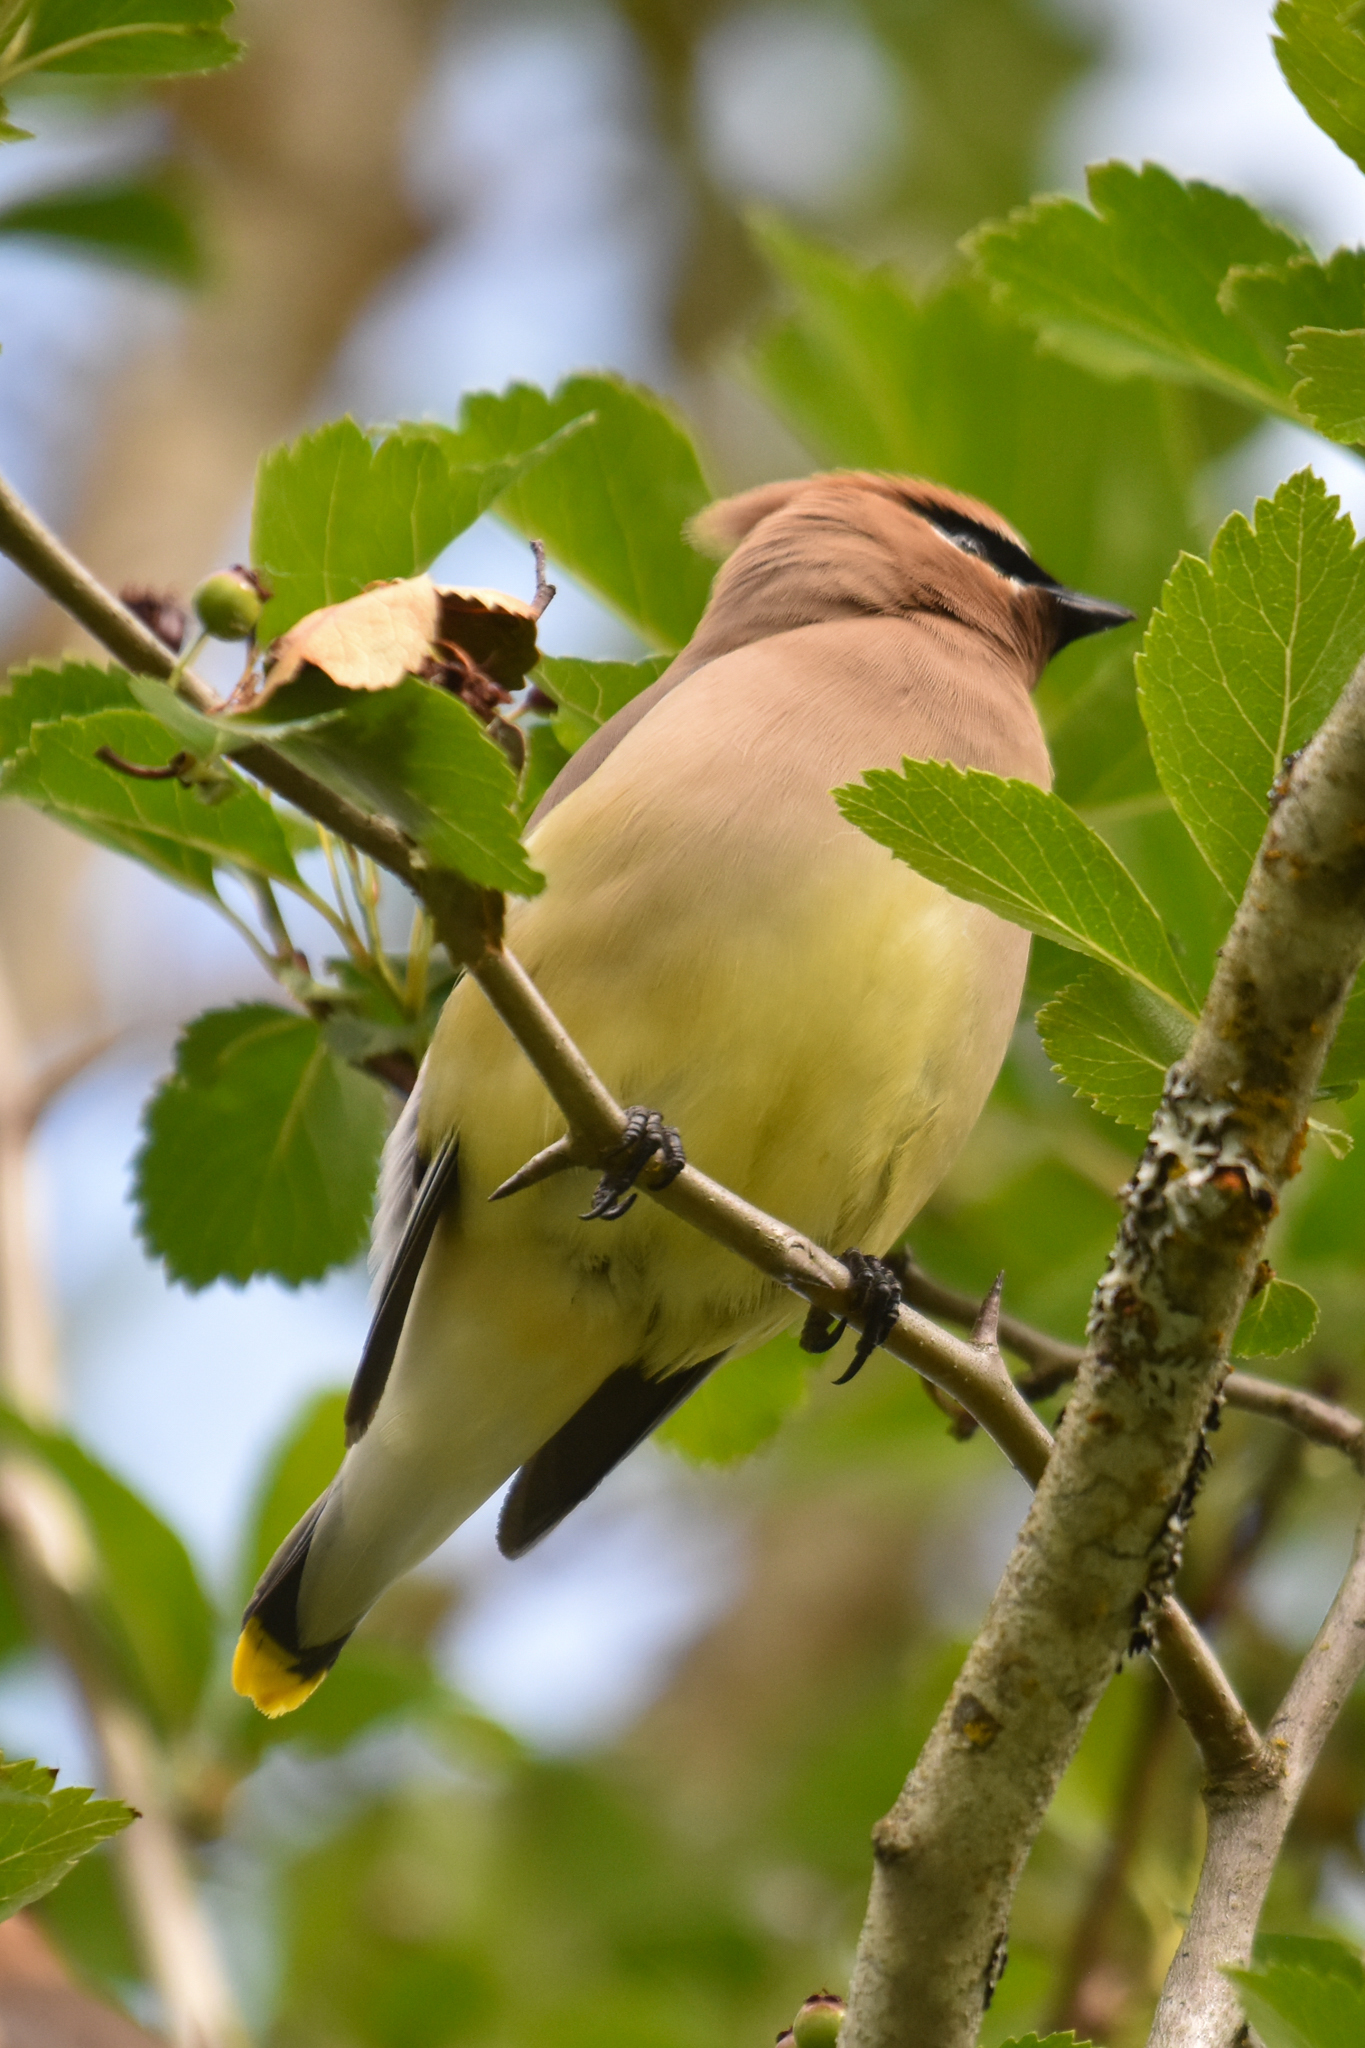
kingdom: Animalia
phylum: Chordata
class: Aves
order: Passeriformes
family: Bombycillidae
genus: Bombycilla
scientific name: Bombycilla cedrorum
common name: Cedar waxwing
